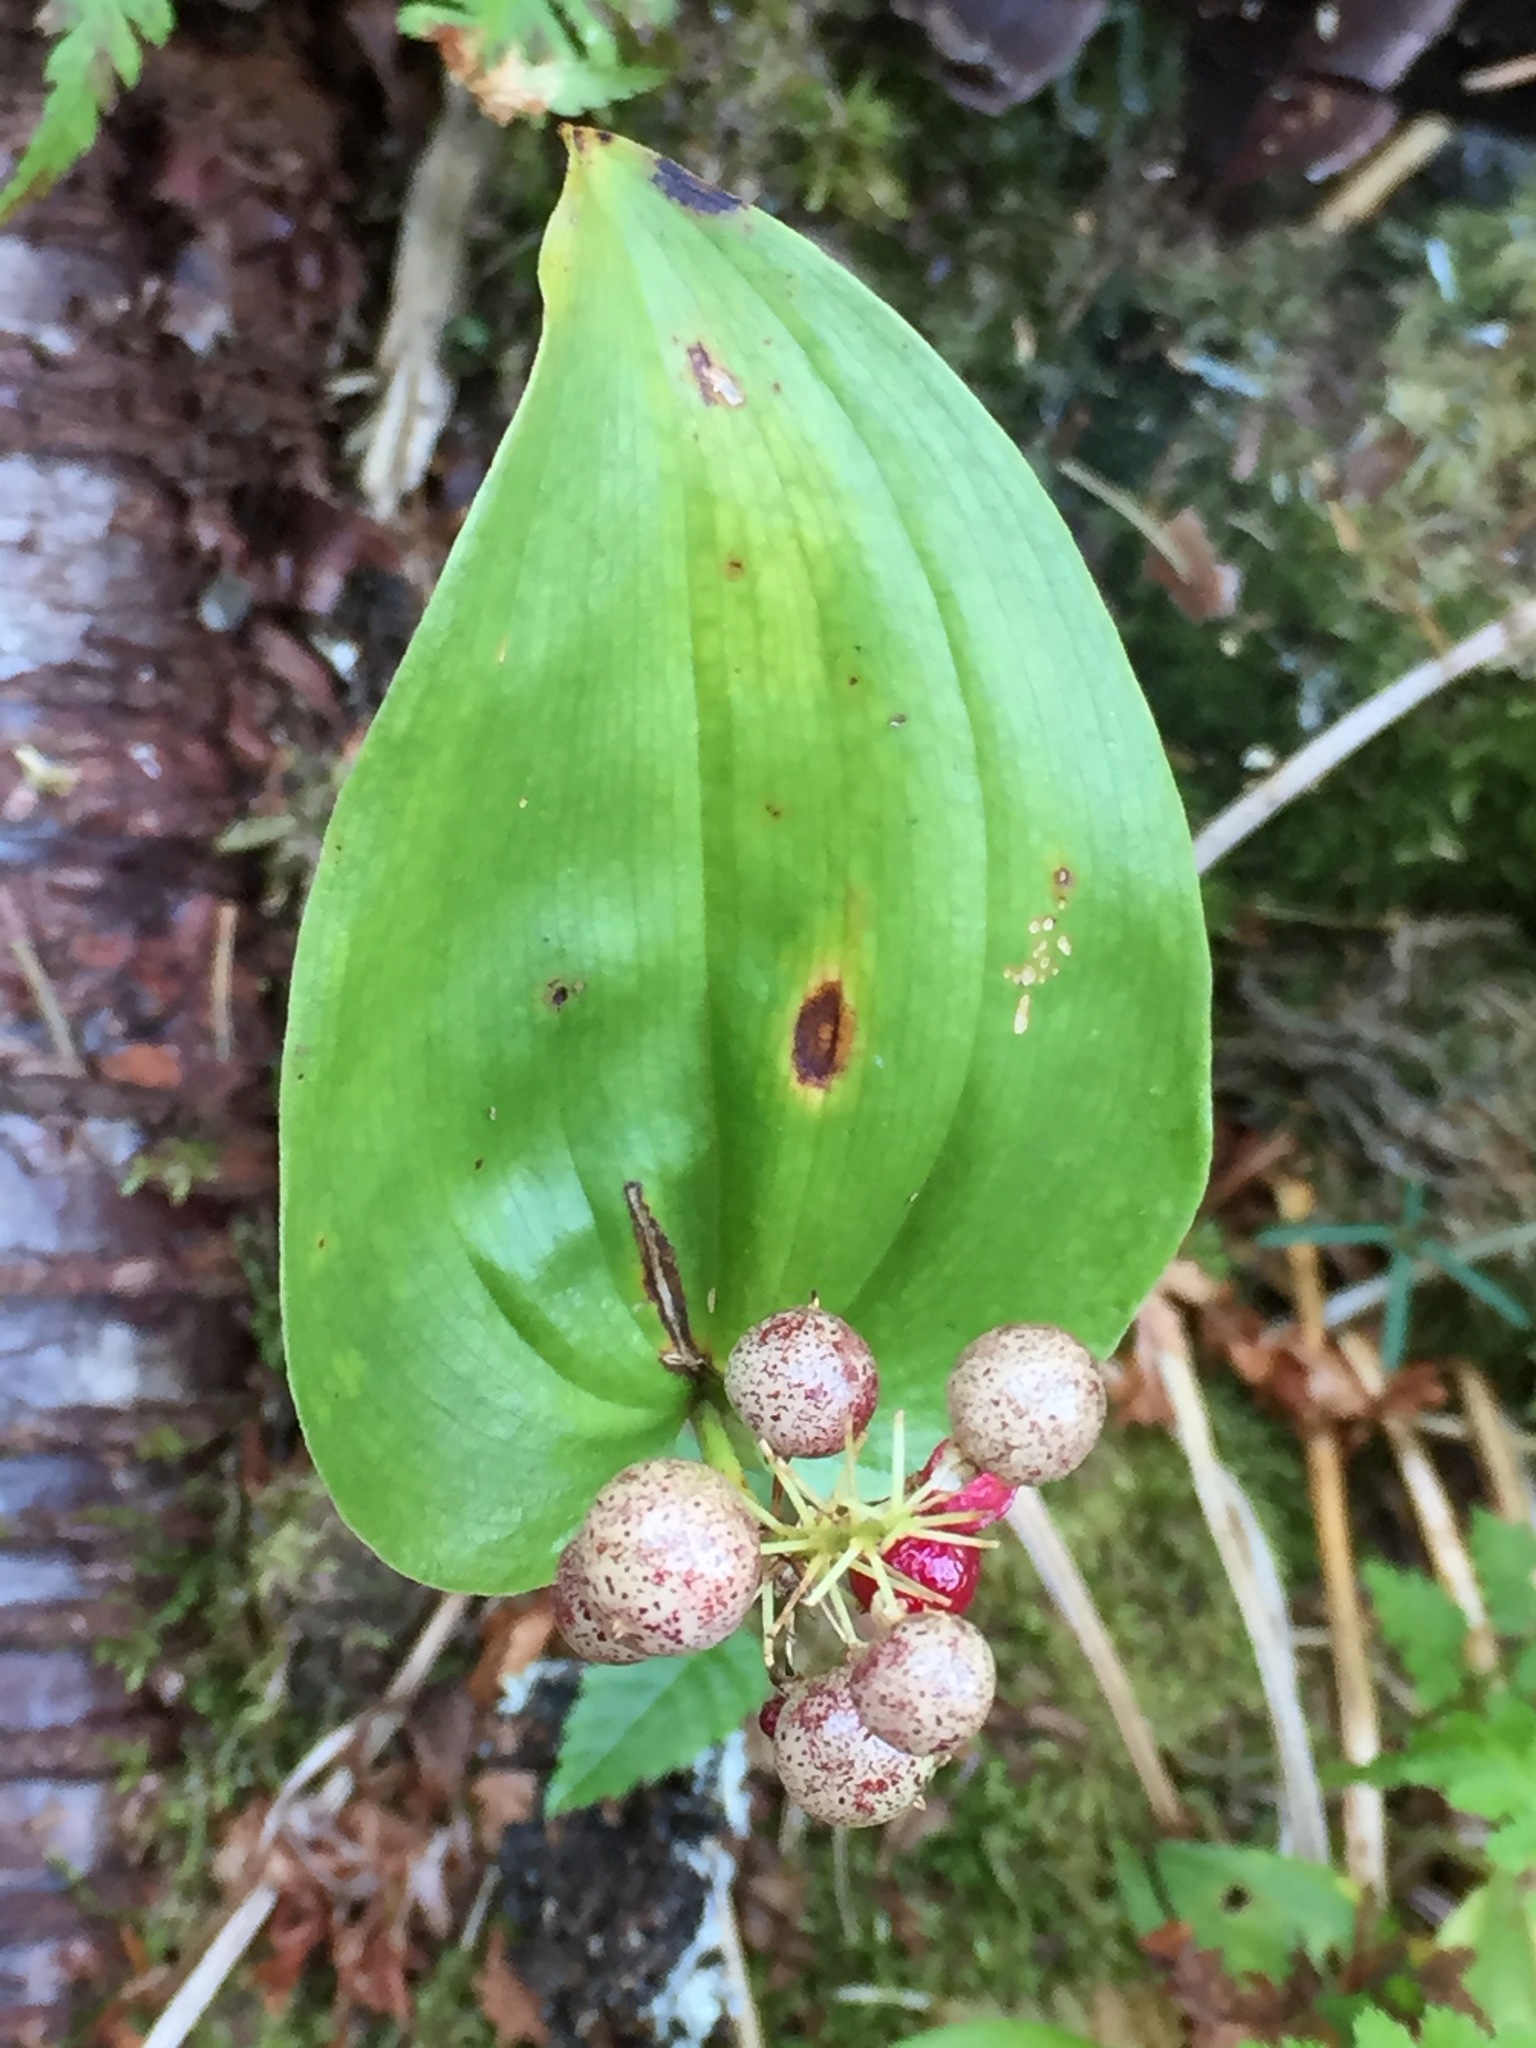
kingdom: Plantae
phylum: Tracheophyta
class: Liliopsida
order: Asparagales
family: Asparagaceae
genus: Maianthemum
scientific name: Maianthemum canadense
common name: False lily-of-the-valley
